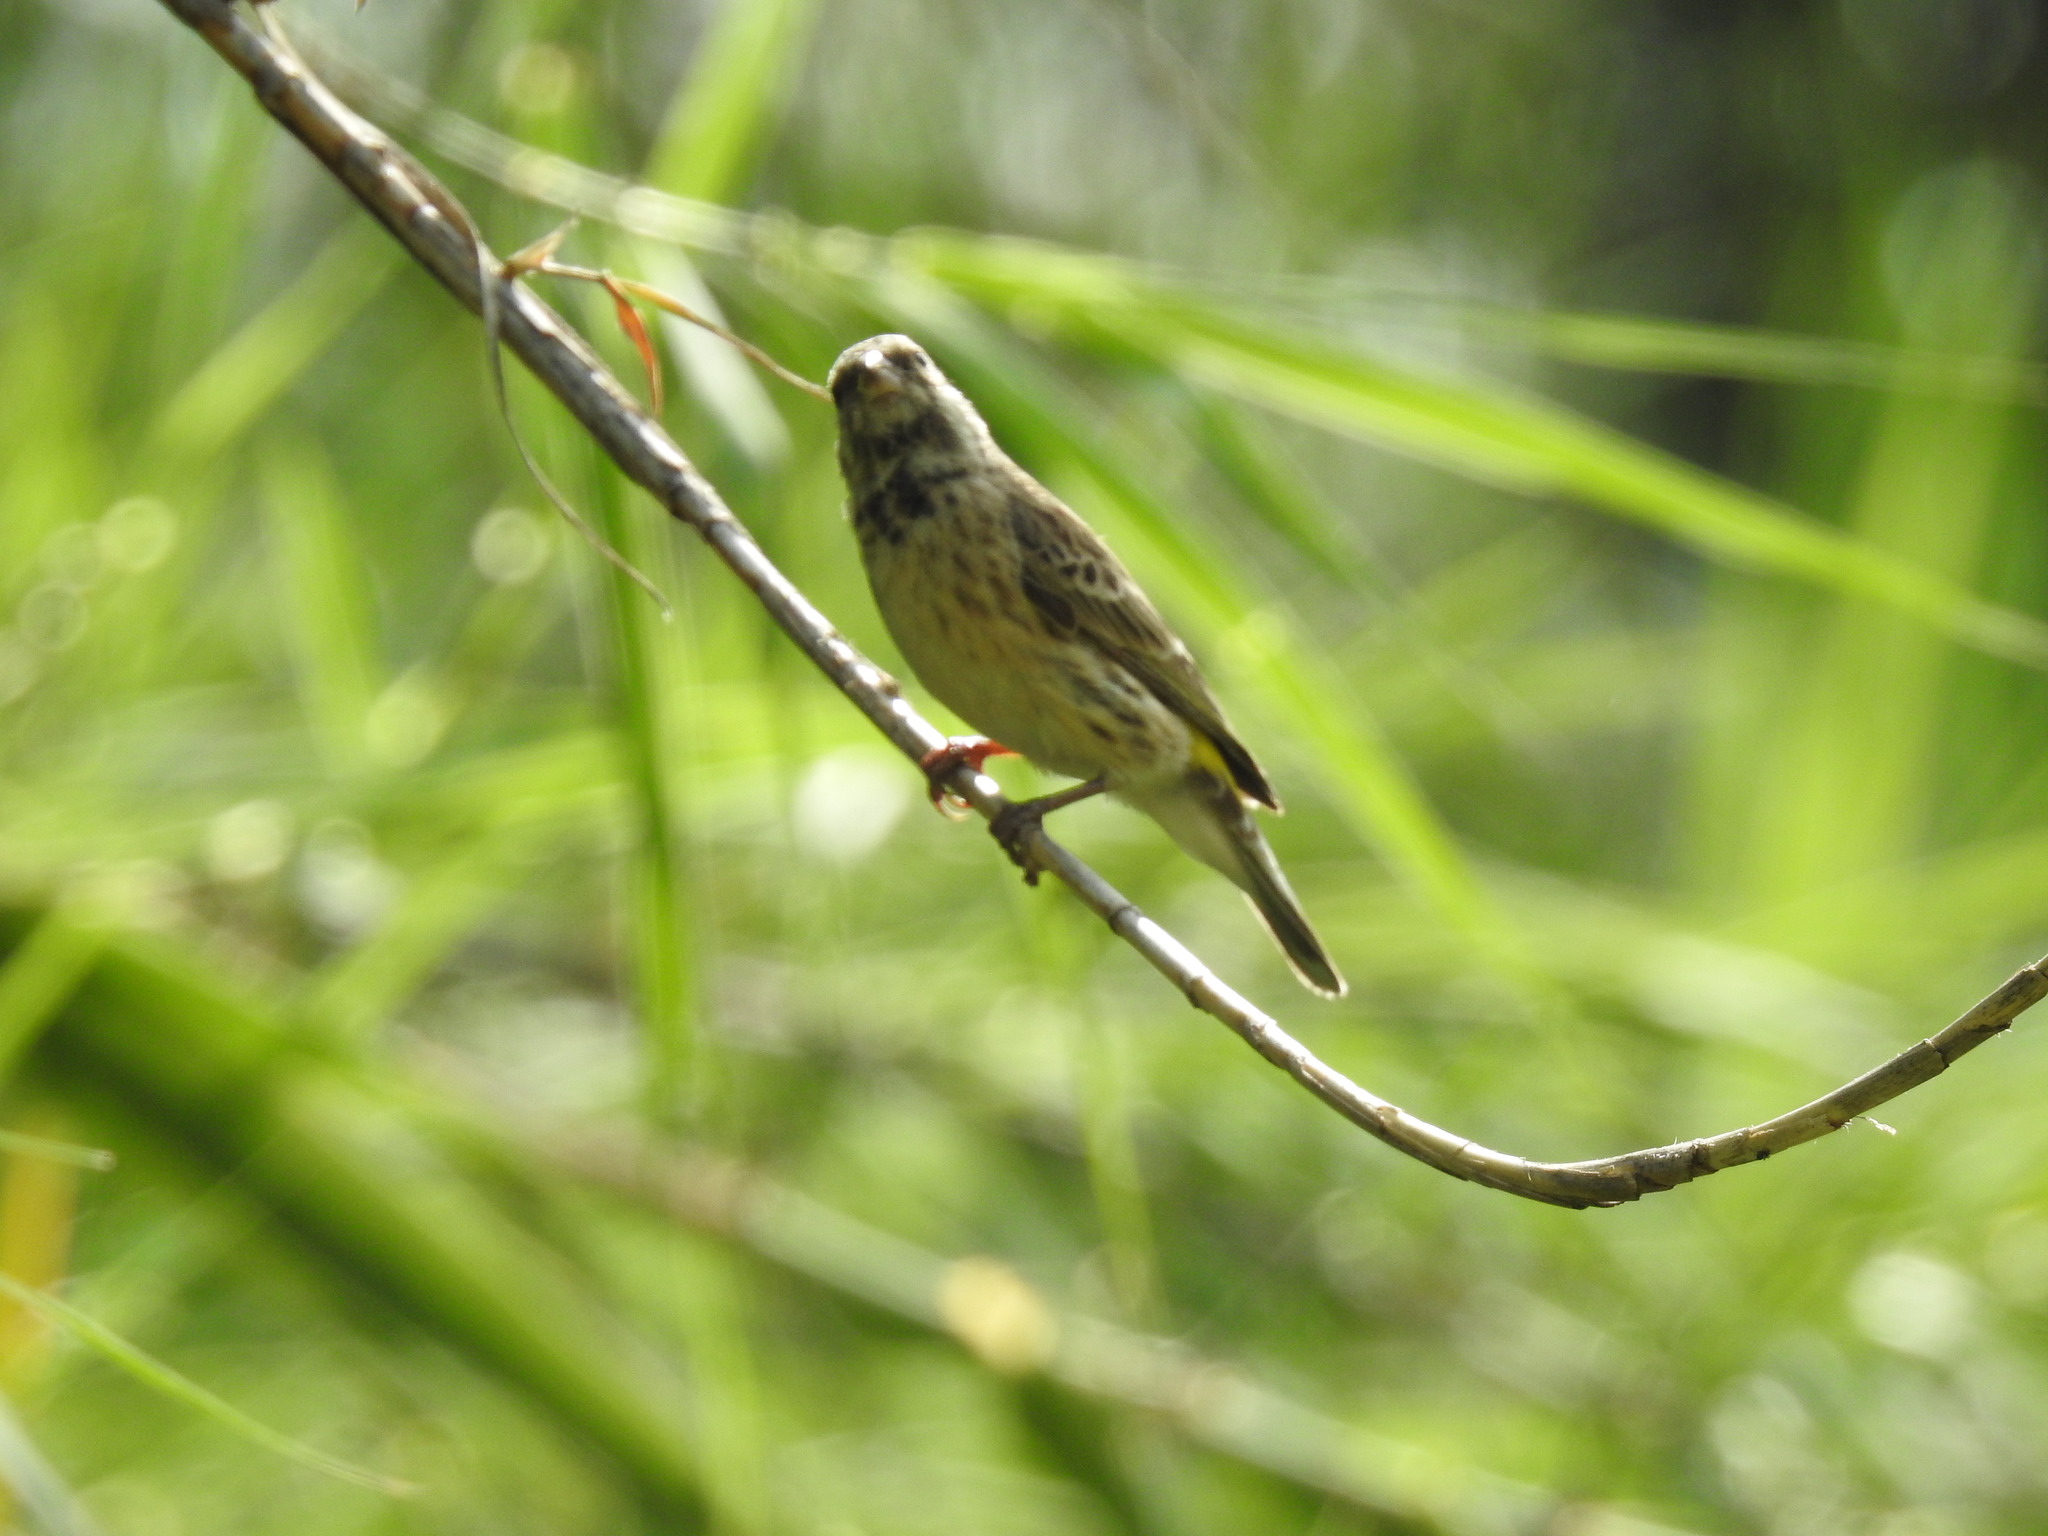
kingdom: Animalia
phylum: Chordata
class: Aves
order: Passeriformes
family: Fringillidae
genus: Crithagra
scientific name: Crithagra atrogularis
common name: Black-throated canary
